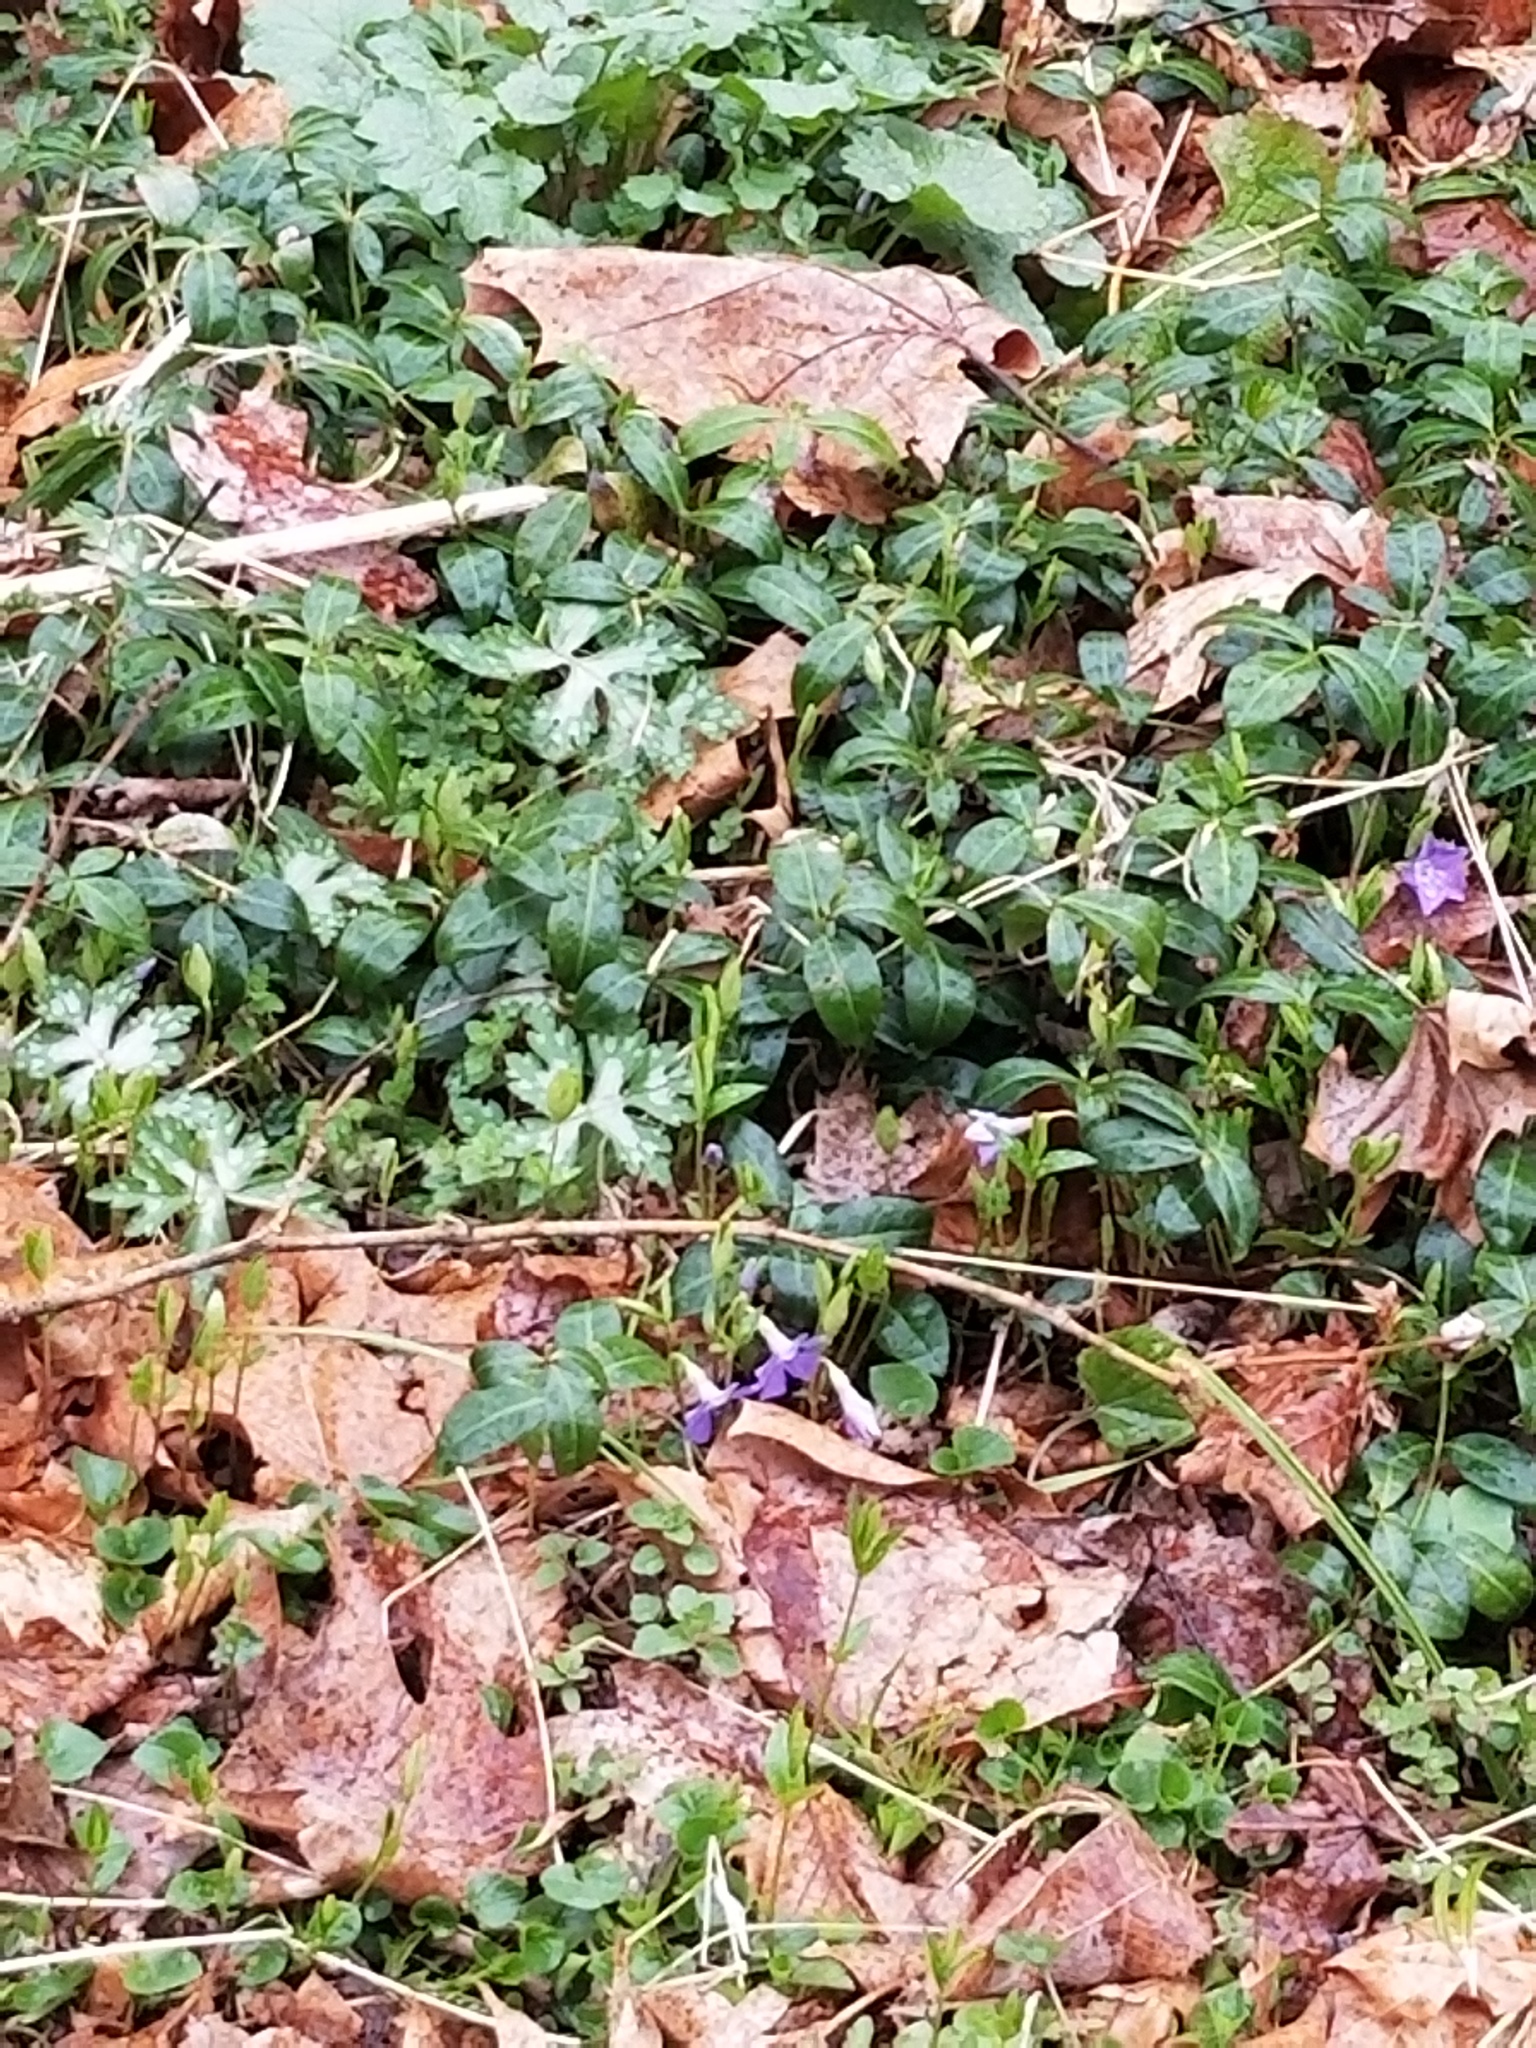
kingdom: Plantae
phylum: Tracheophyta
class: Magnoliopsida
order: Gentianales
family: Apocynaceae
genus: Vinca
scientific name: Vinca minor
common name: Lesser periwinkle
